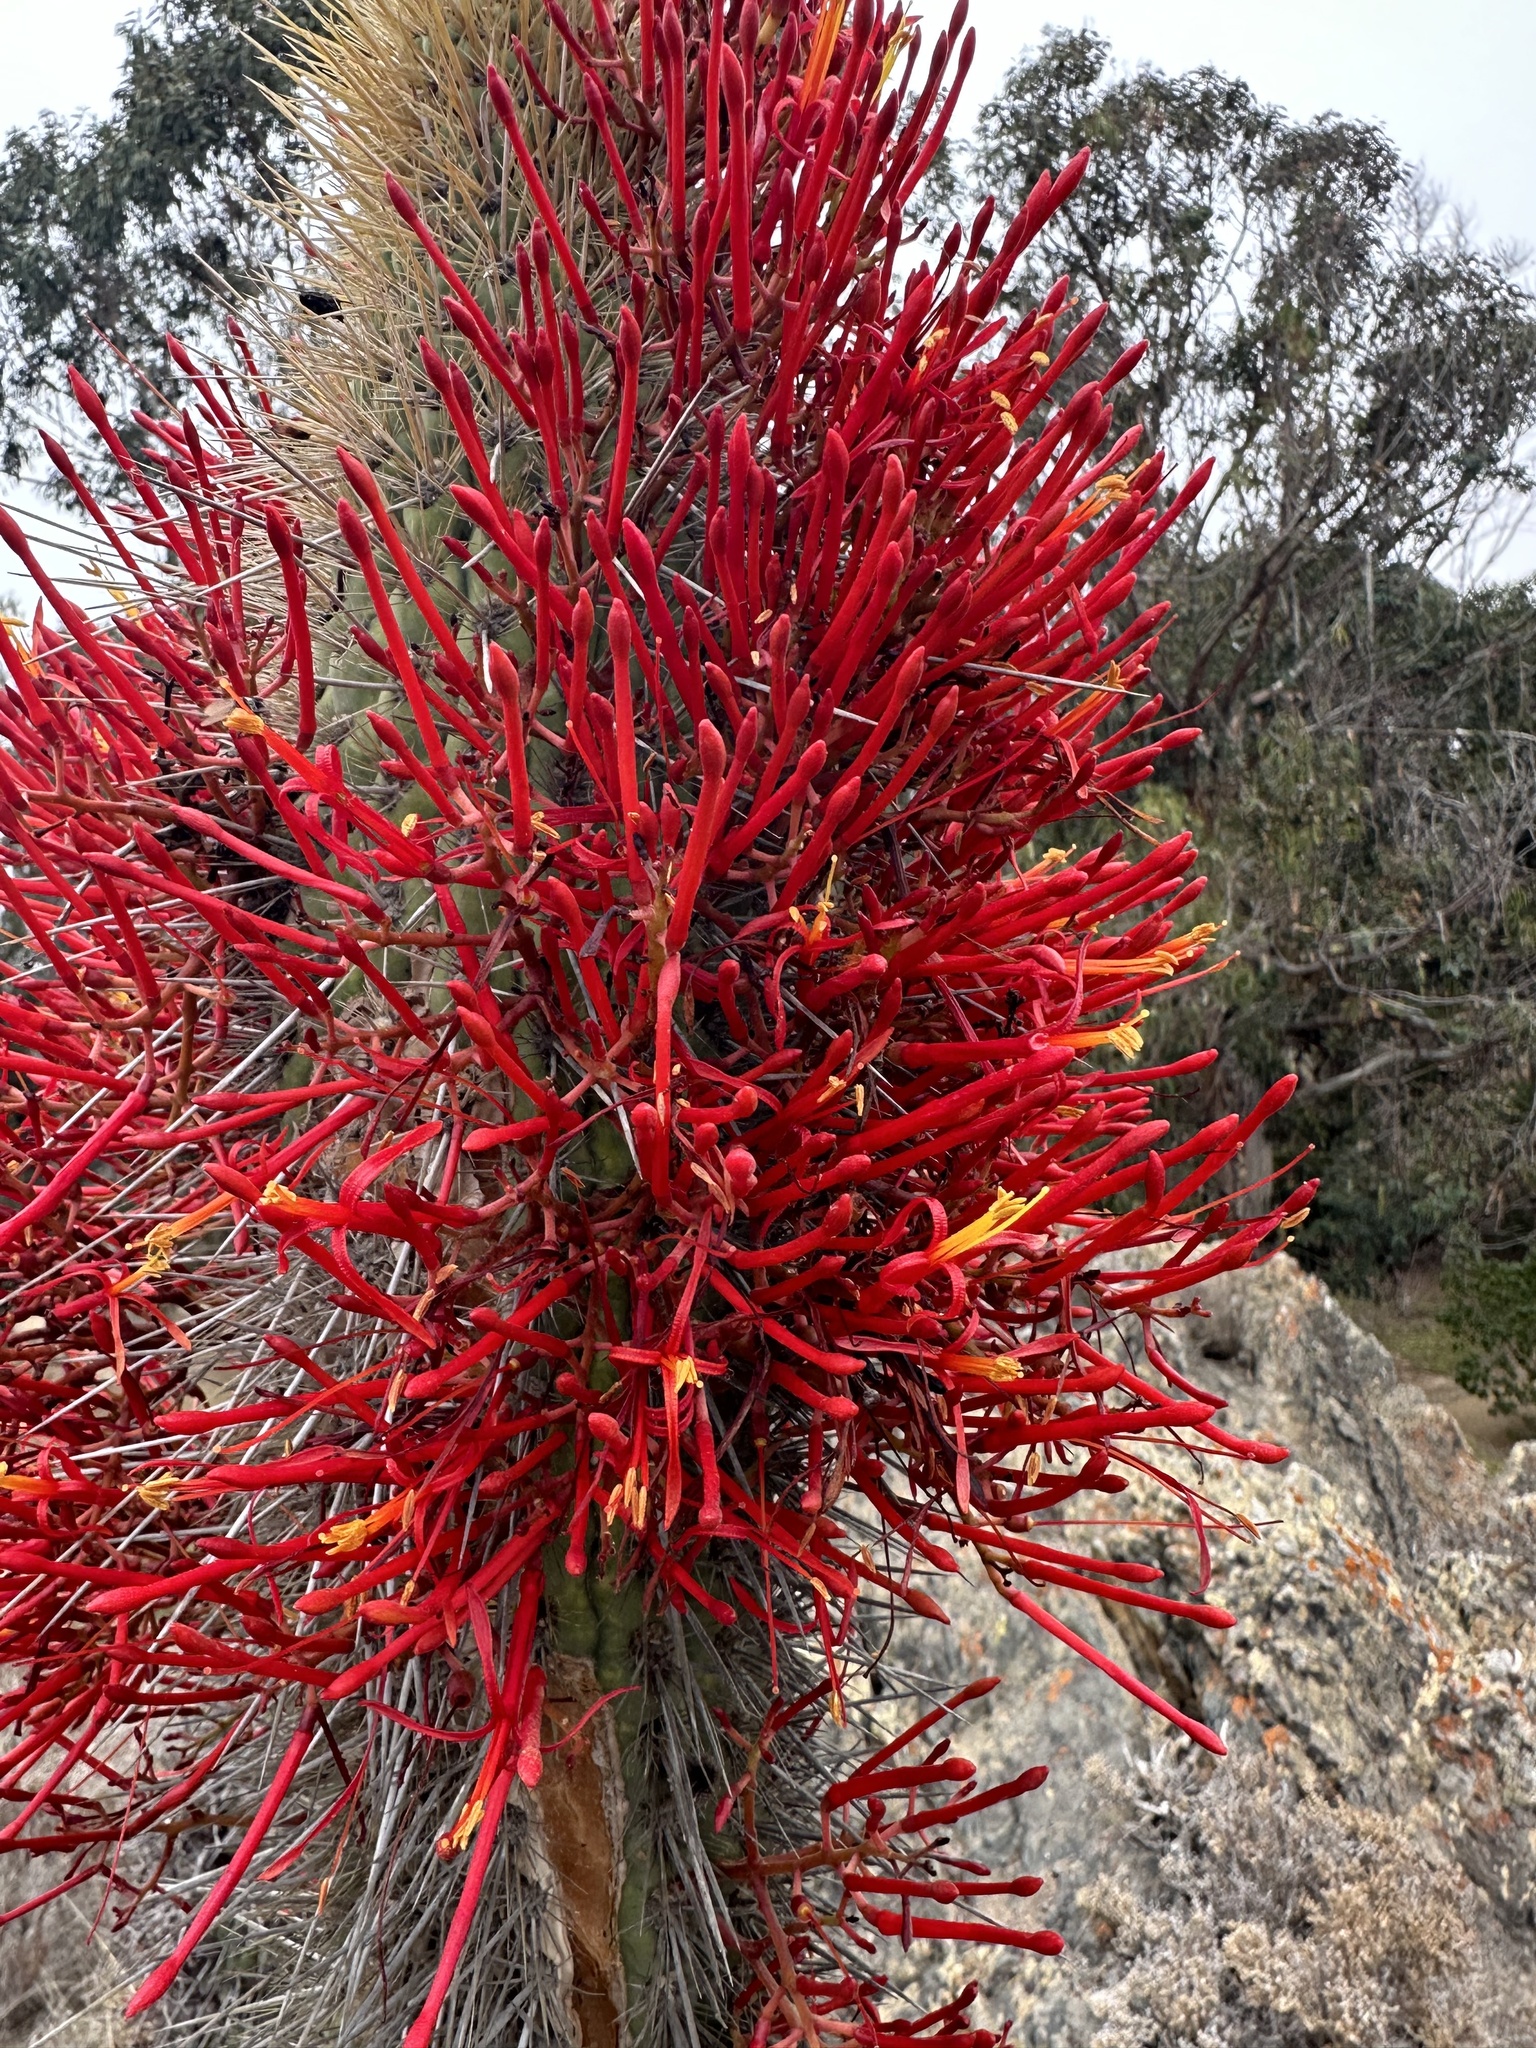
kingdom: Plantae
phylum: Tracheophyta
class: Magnoliopsida
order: Santalales
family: Loranthaceae
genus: Tristerix
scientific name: Tristerix aphyllus
